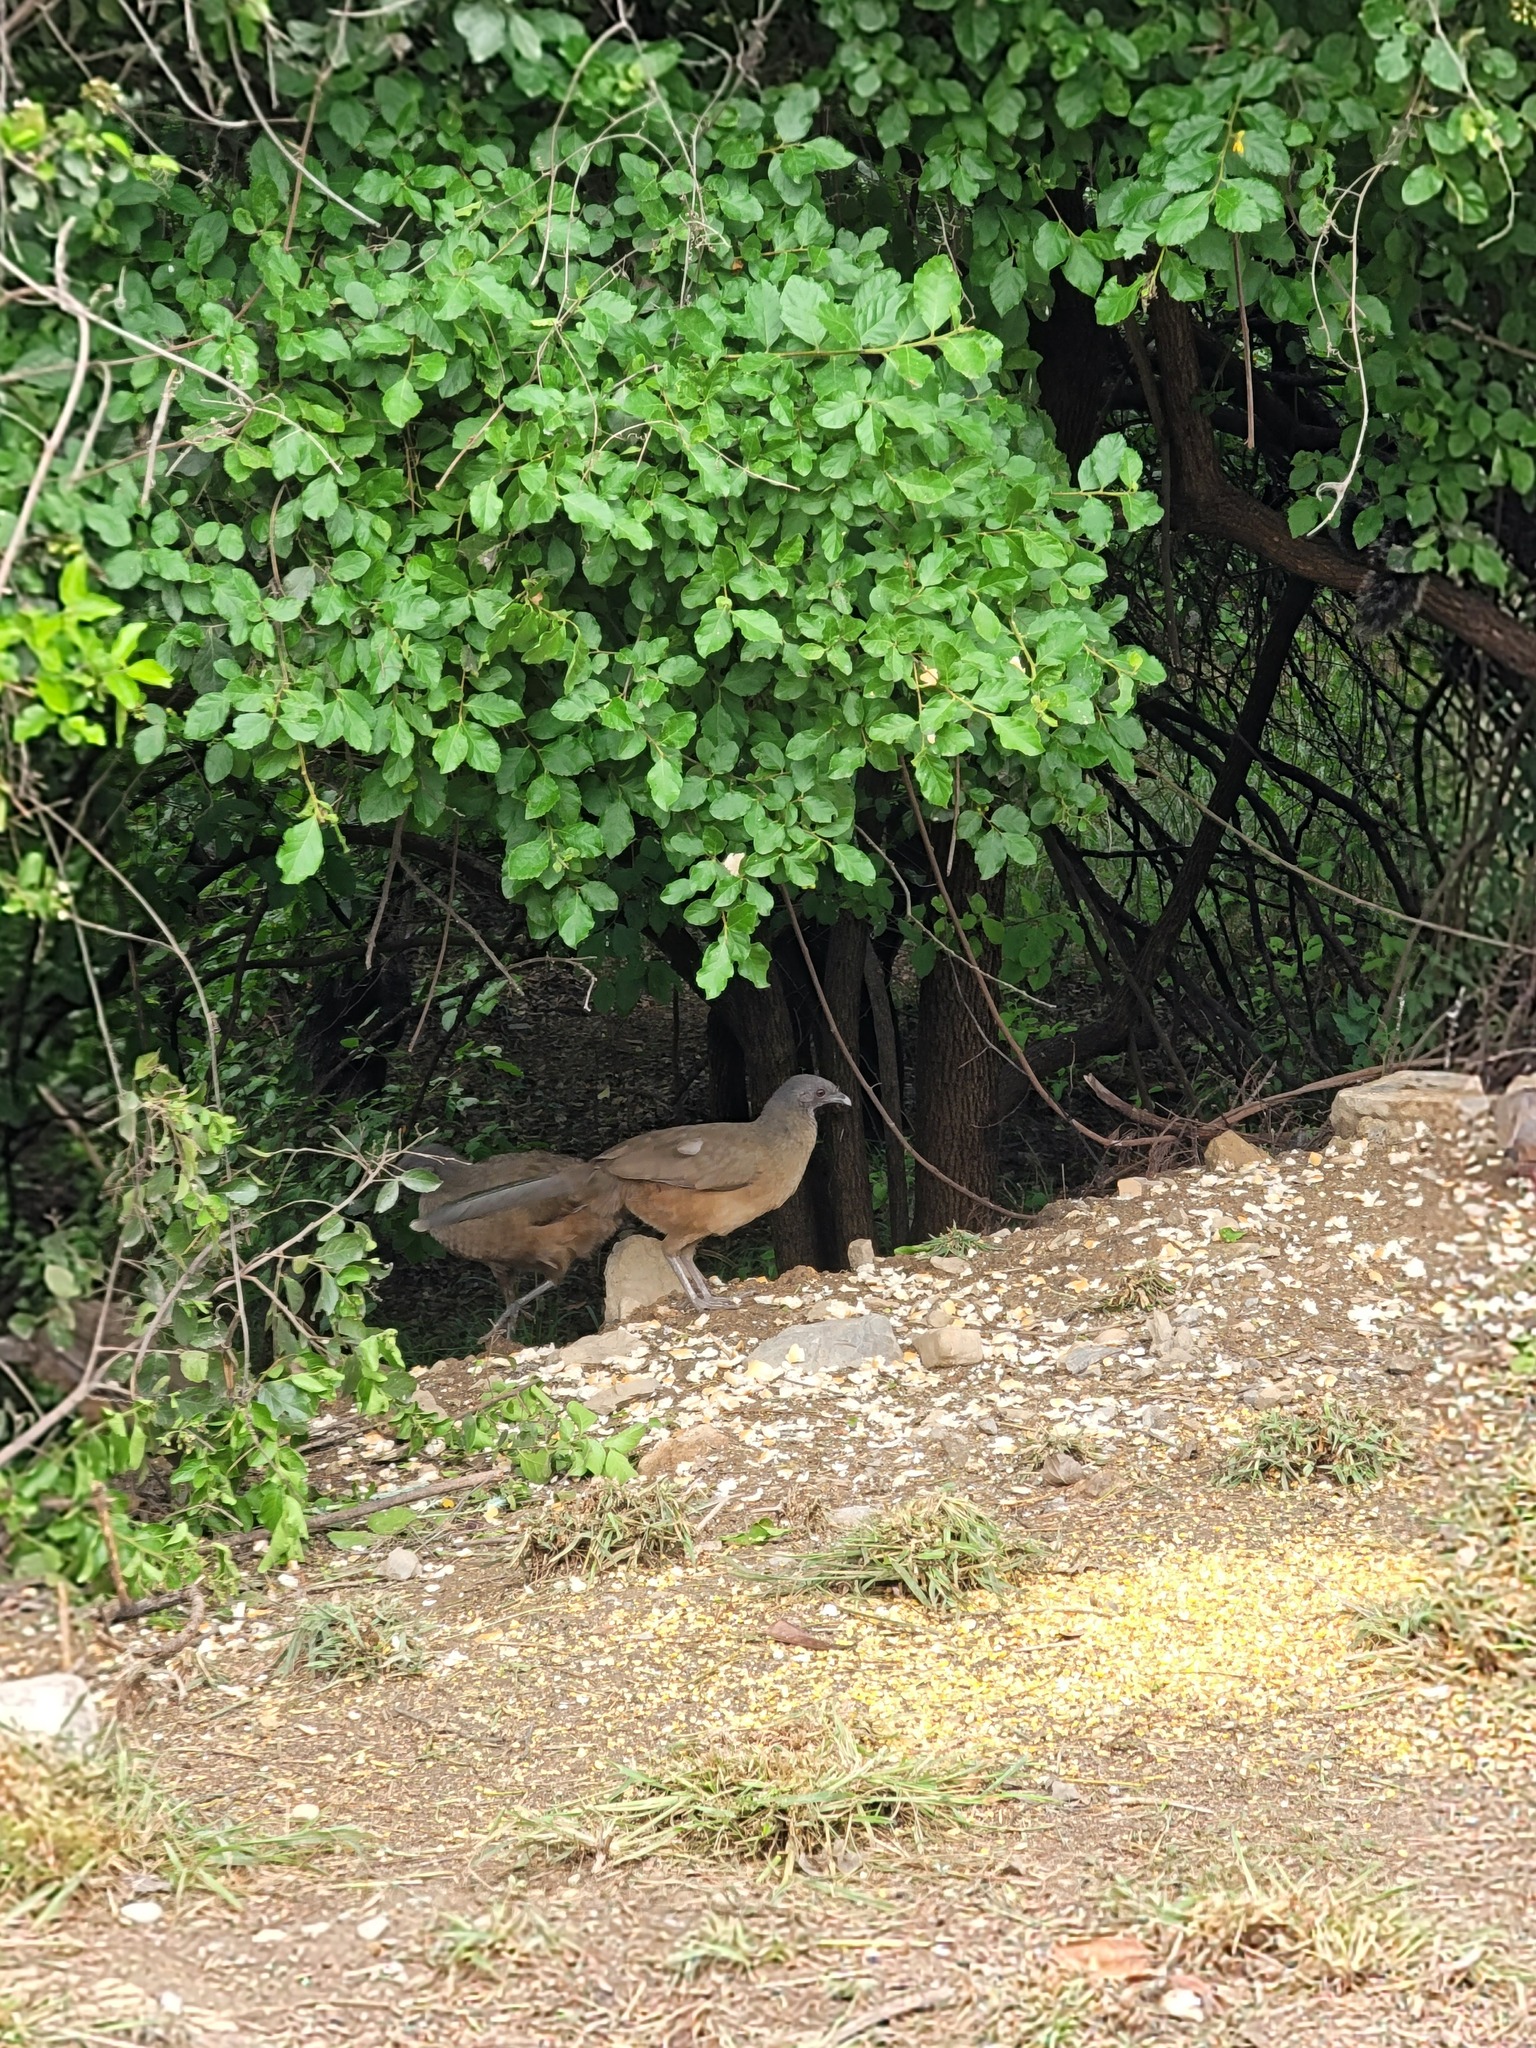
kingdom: Animalia
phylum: Chordata
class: Aves
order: Galliformes
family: Cracidae
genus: Ortalis
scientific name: Ortalis vetula
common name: Plain chachalaca
